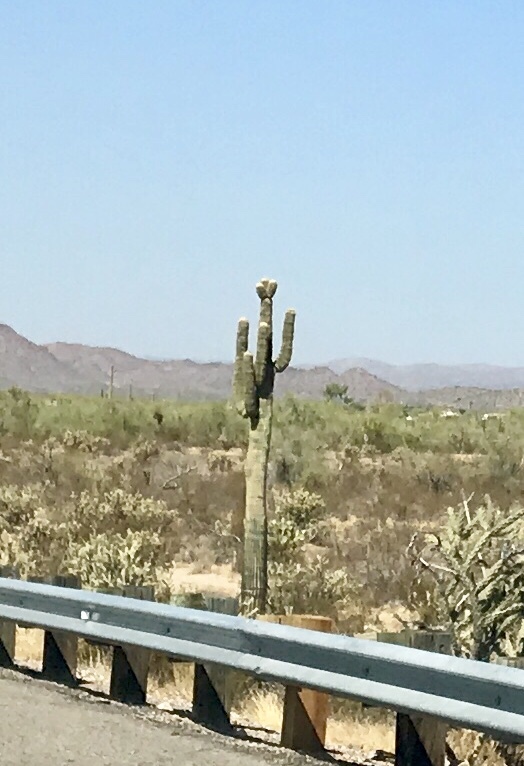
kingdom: Plantae
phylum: Tracheophyta
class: Magnoliopsida
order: Caryophyllales
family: Cactaceae
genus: Carnegiea
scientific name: Carnegiea gigantea
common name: Saguaro
